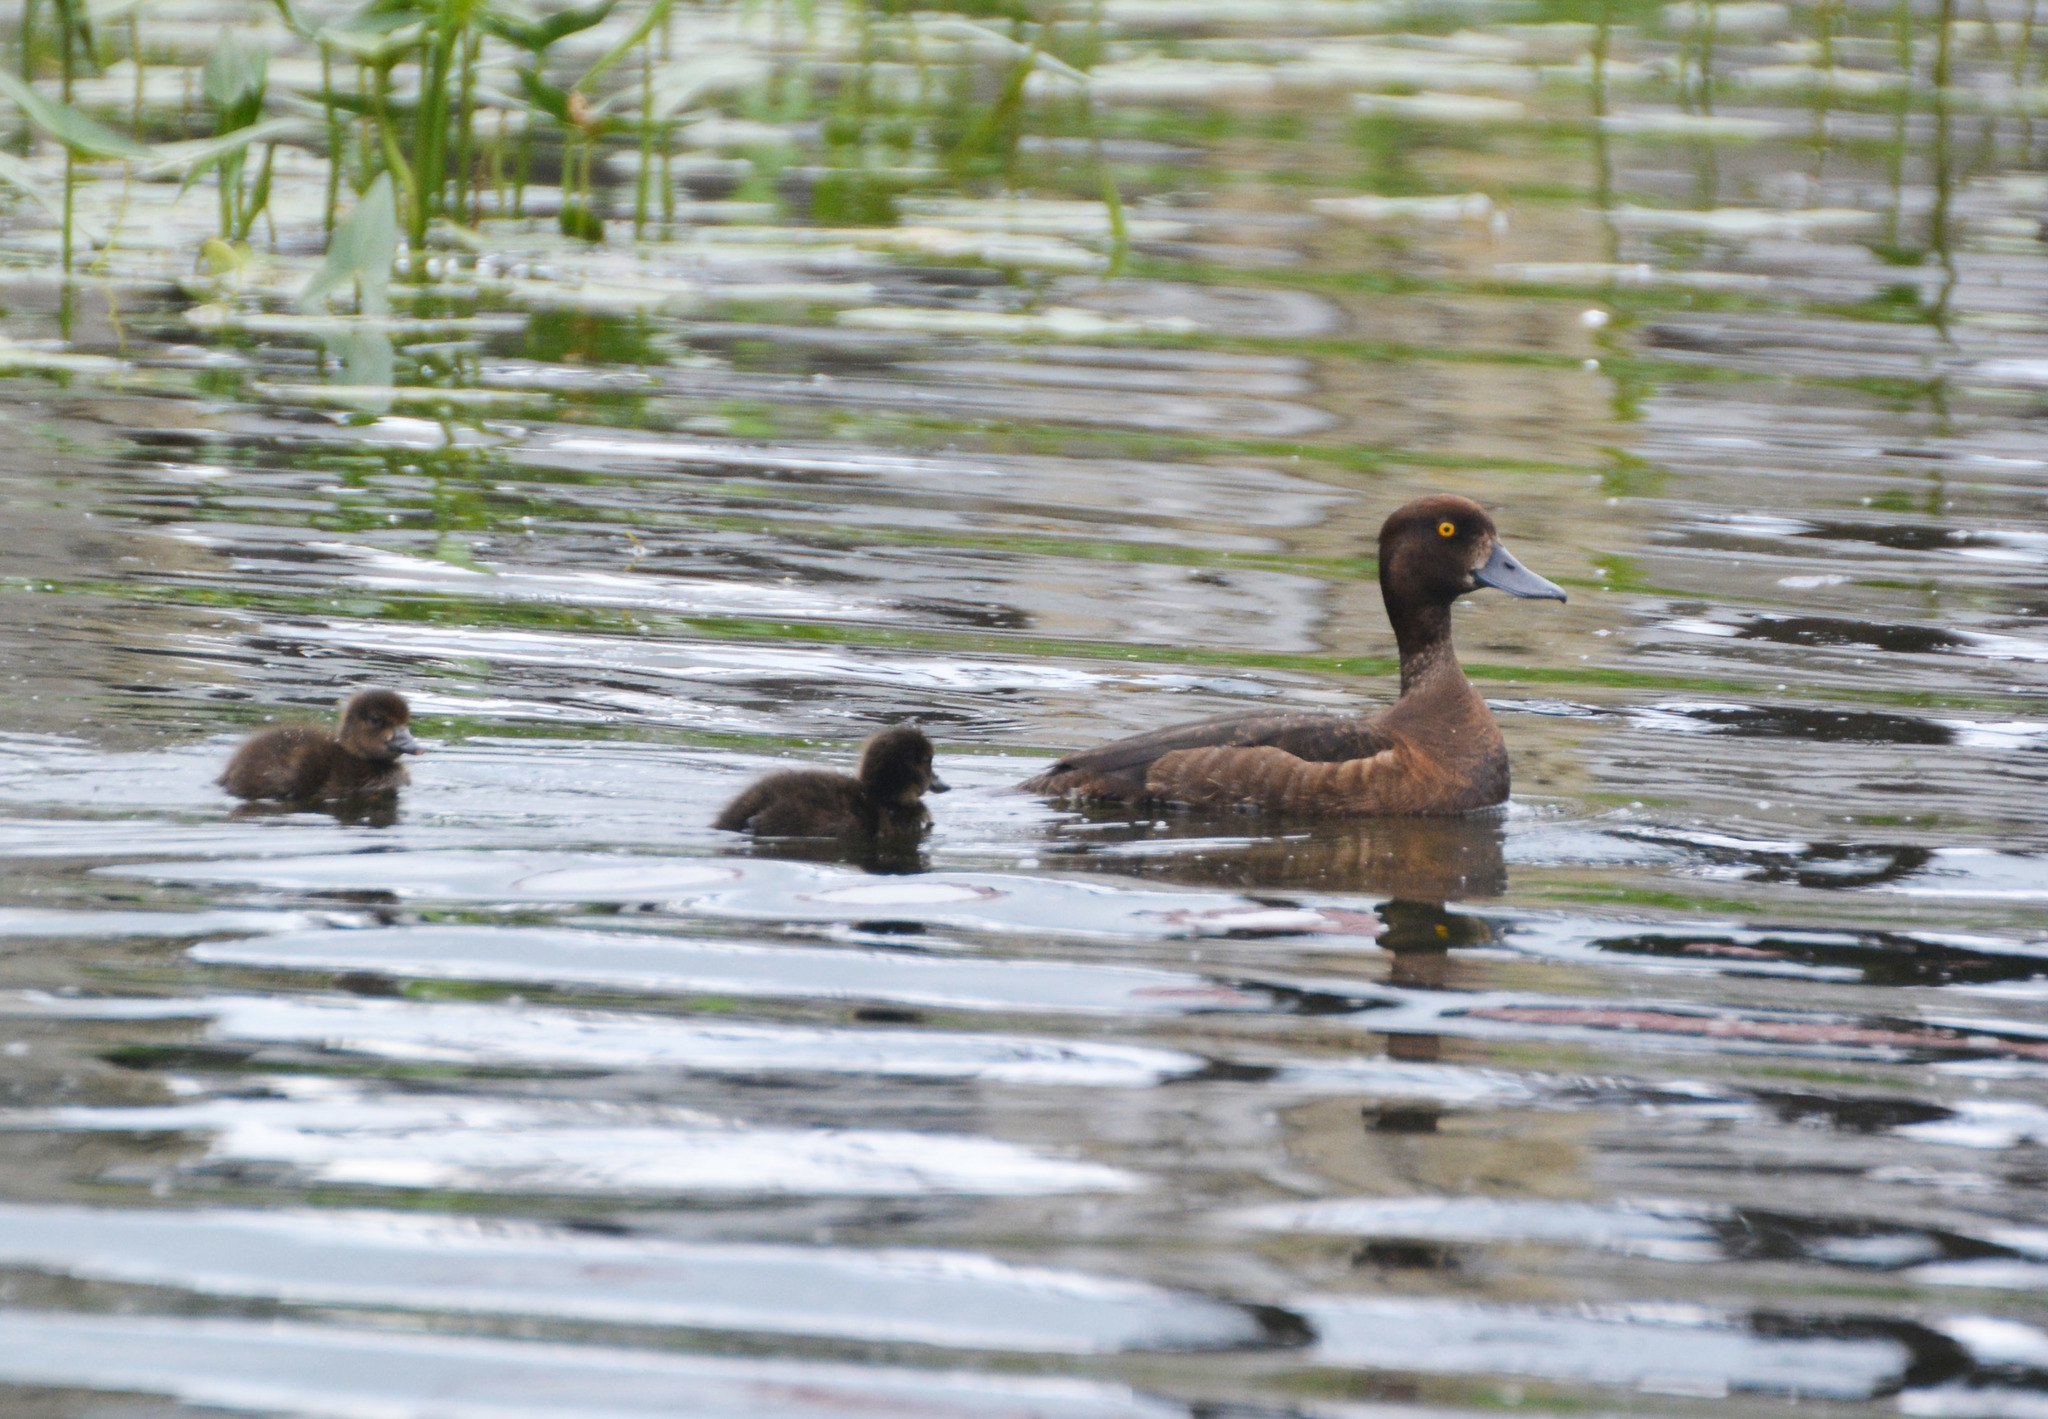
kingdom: Animalia
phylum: Chordata
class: Aves
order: Anseriformes
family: Anatidae
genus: Aythya
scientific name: Aythya fuligula
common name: Tufted duck
